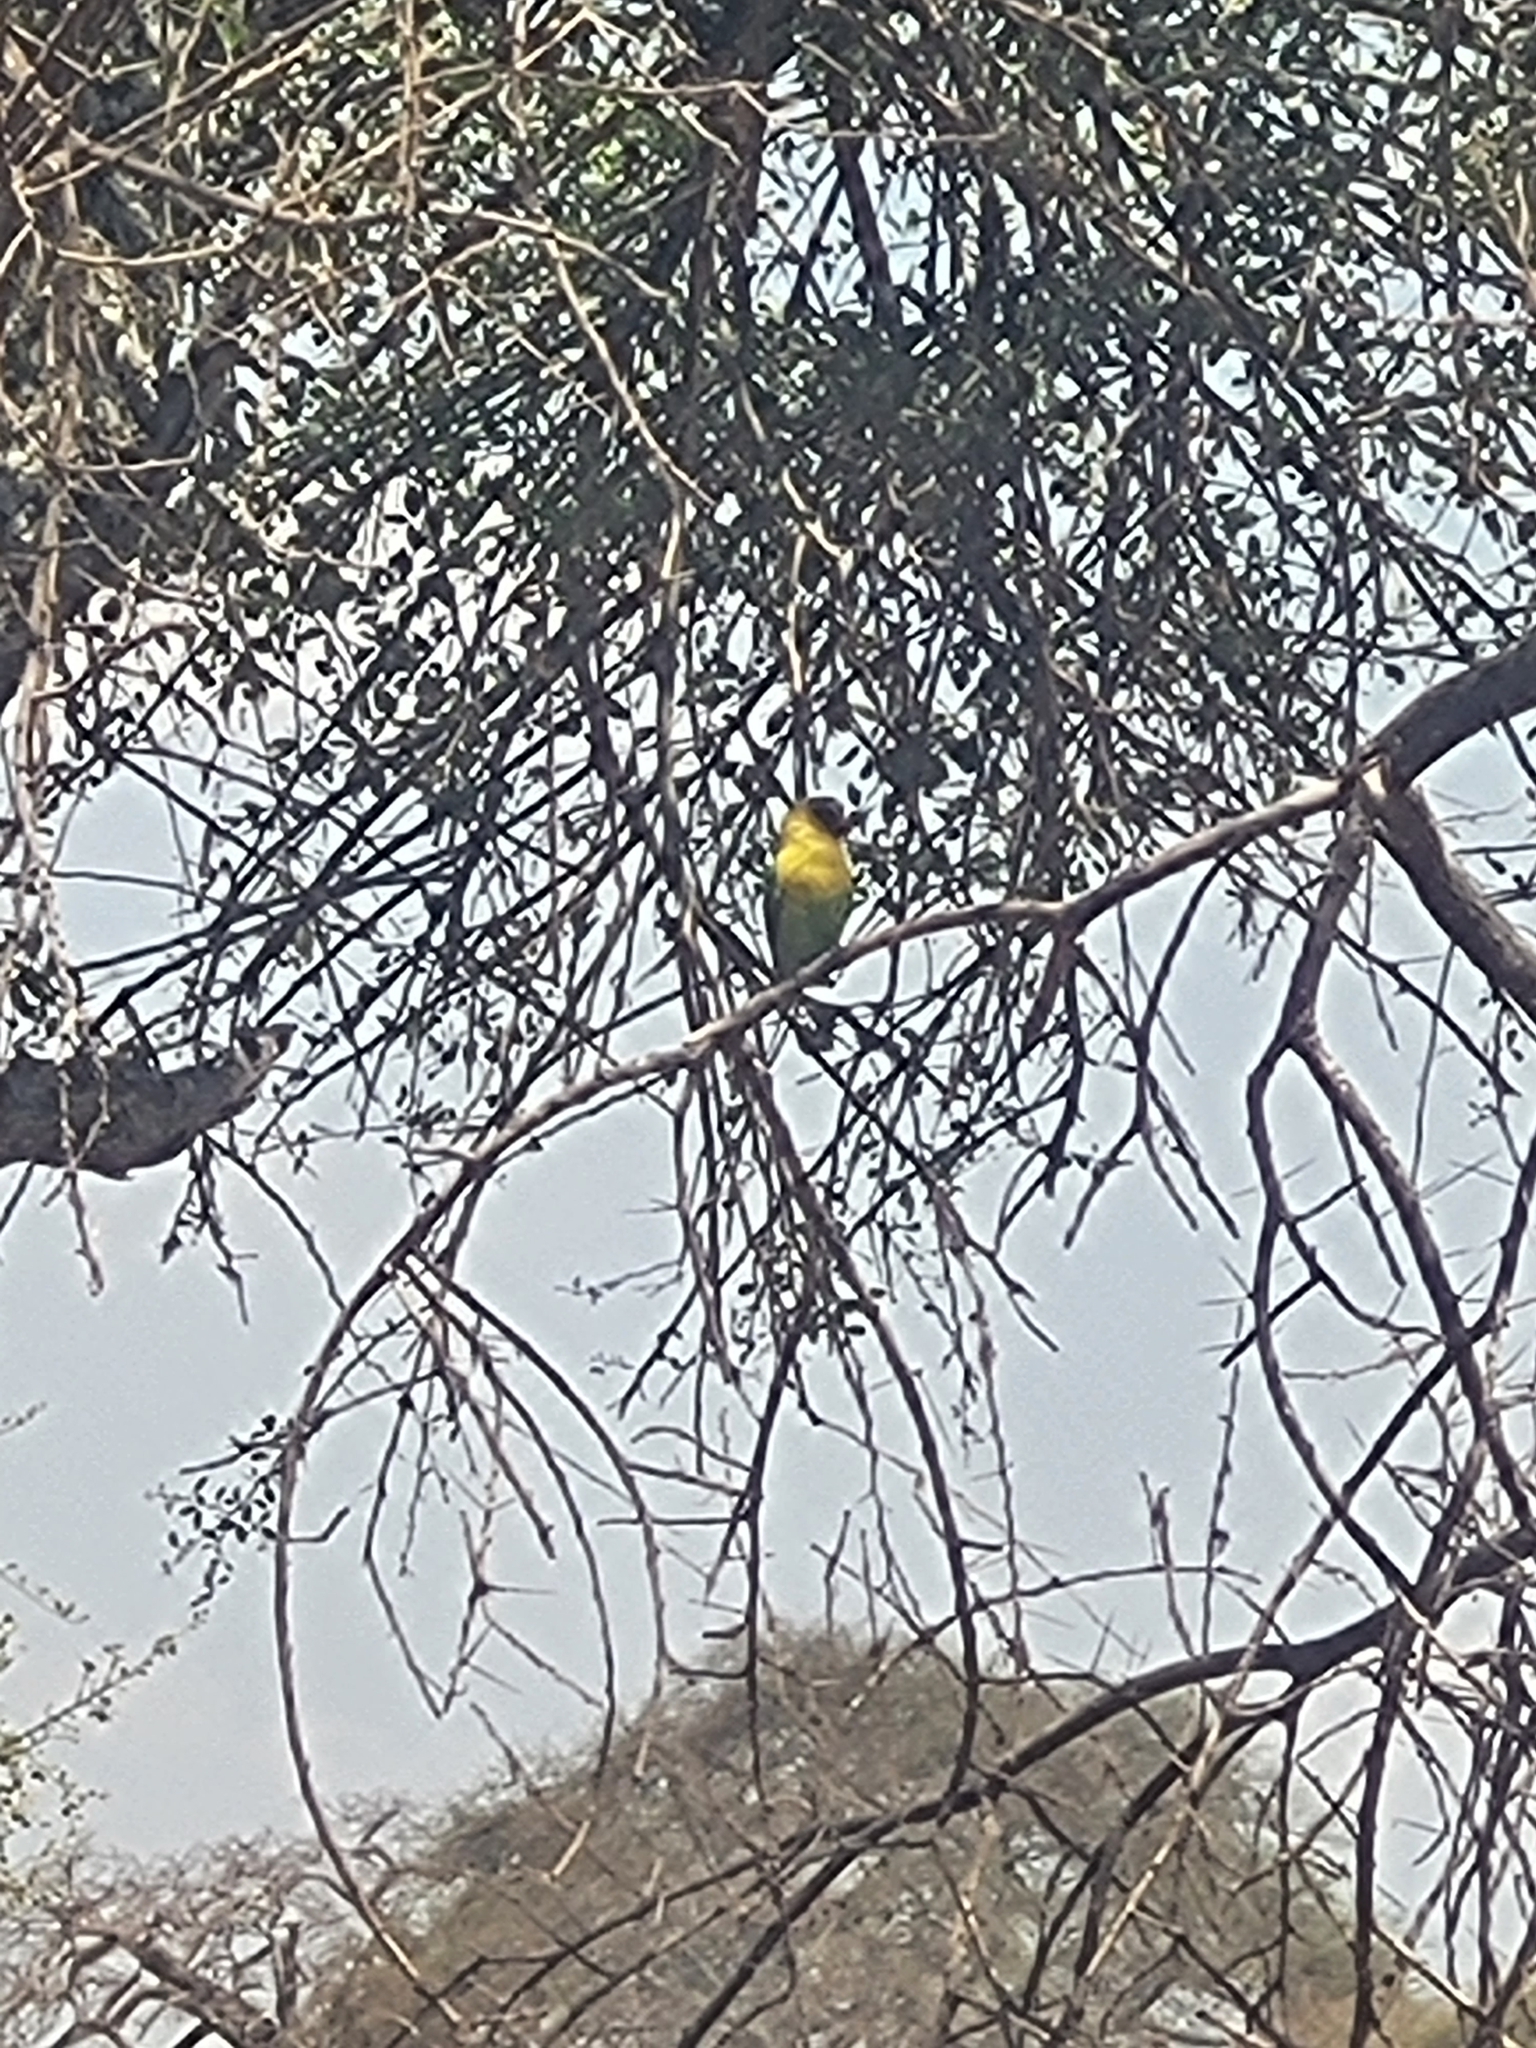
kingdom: Animalia
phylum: Chordata
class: Aves
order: Psittaciformes
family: Psittacidae
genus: Agapornis
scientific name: Agapornis personatus
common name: Yellow-collared lovebird
